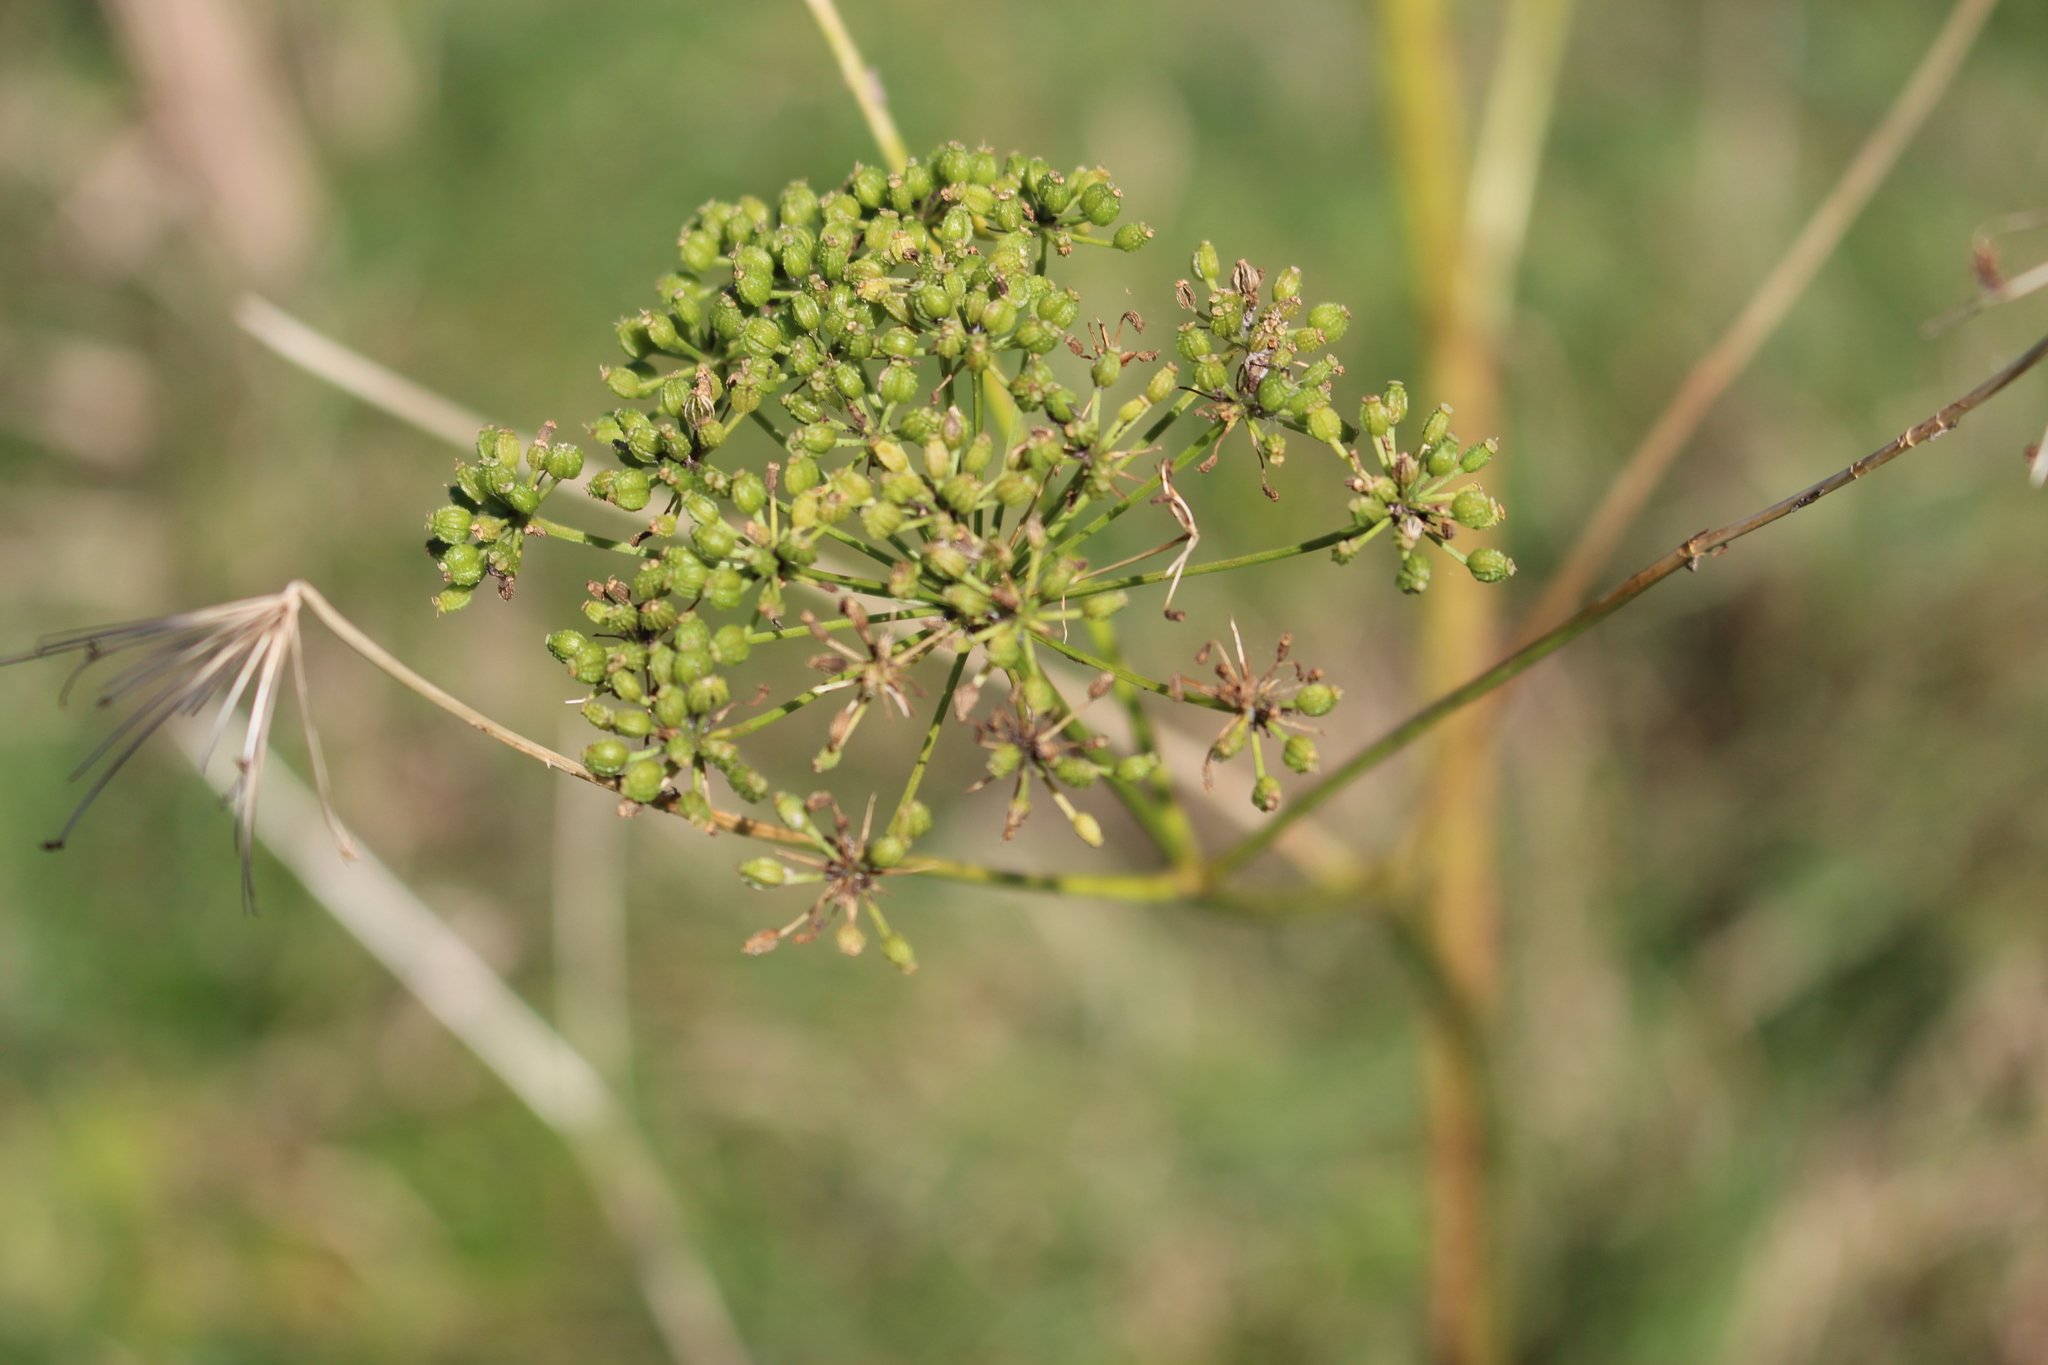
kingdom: Plantae
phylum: Tracheophyta
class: Magnoliopsida
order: Apiales
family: Apiaceae
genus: Conium
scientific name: Conium maculatum
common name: Hemlock
